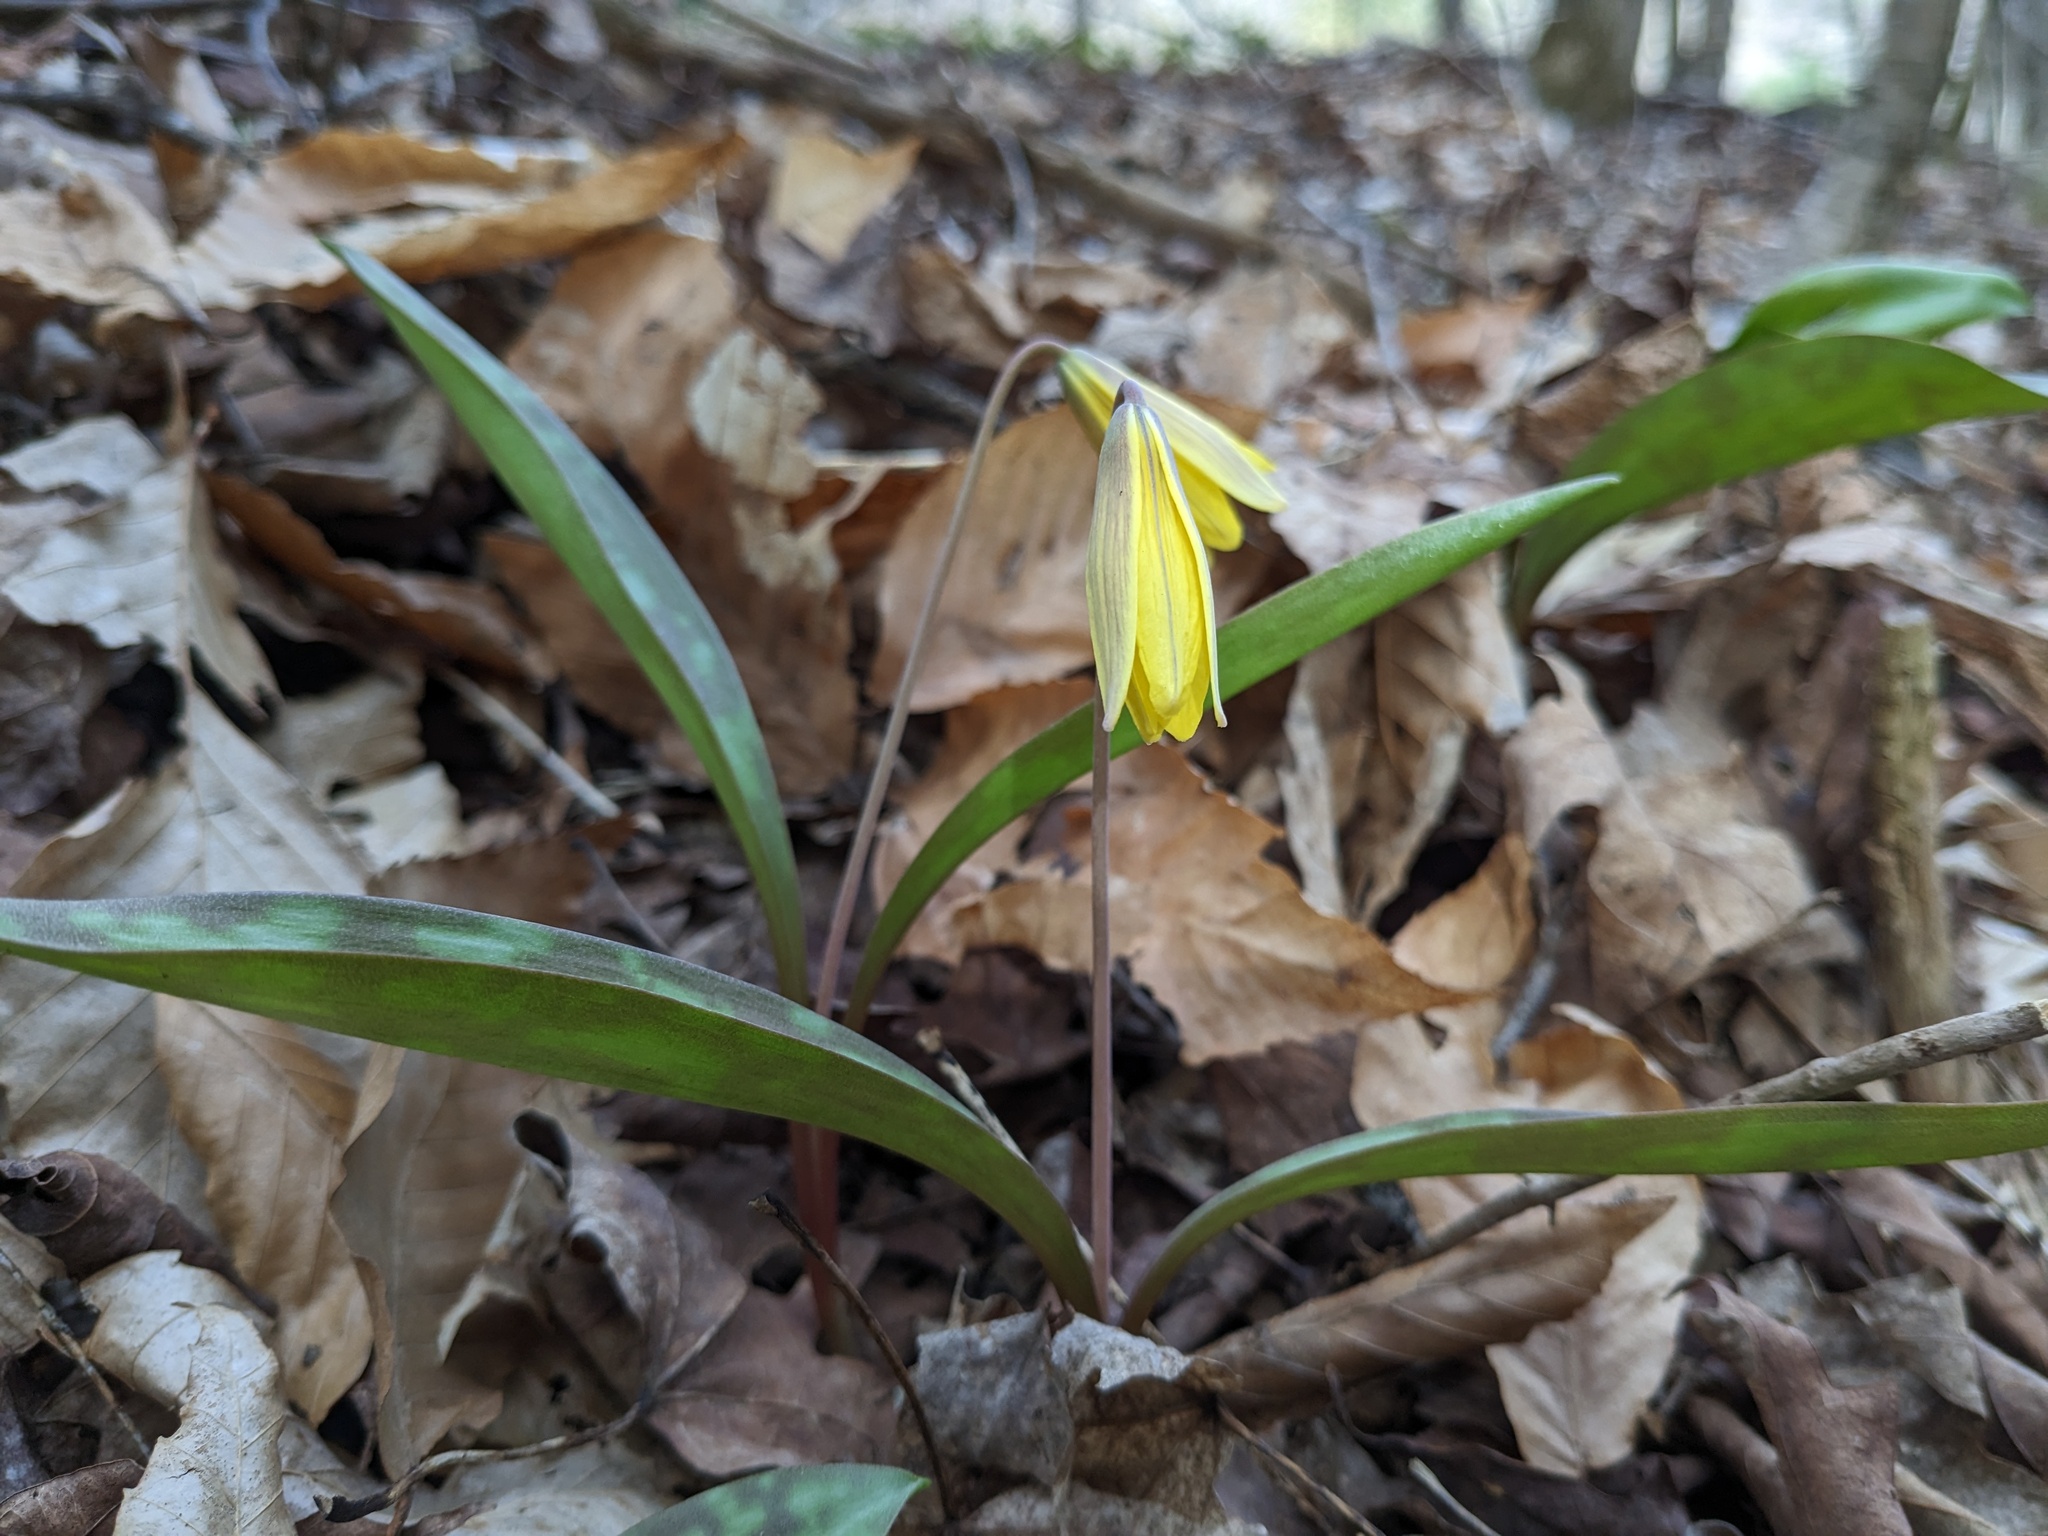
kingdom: Plantae
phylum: Tracheophyta
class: Liliopsida
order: Liliales
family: Liliaceae
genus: Erythronium
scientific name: Erythronium americanum
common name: Yellow adder's-tongue
